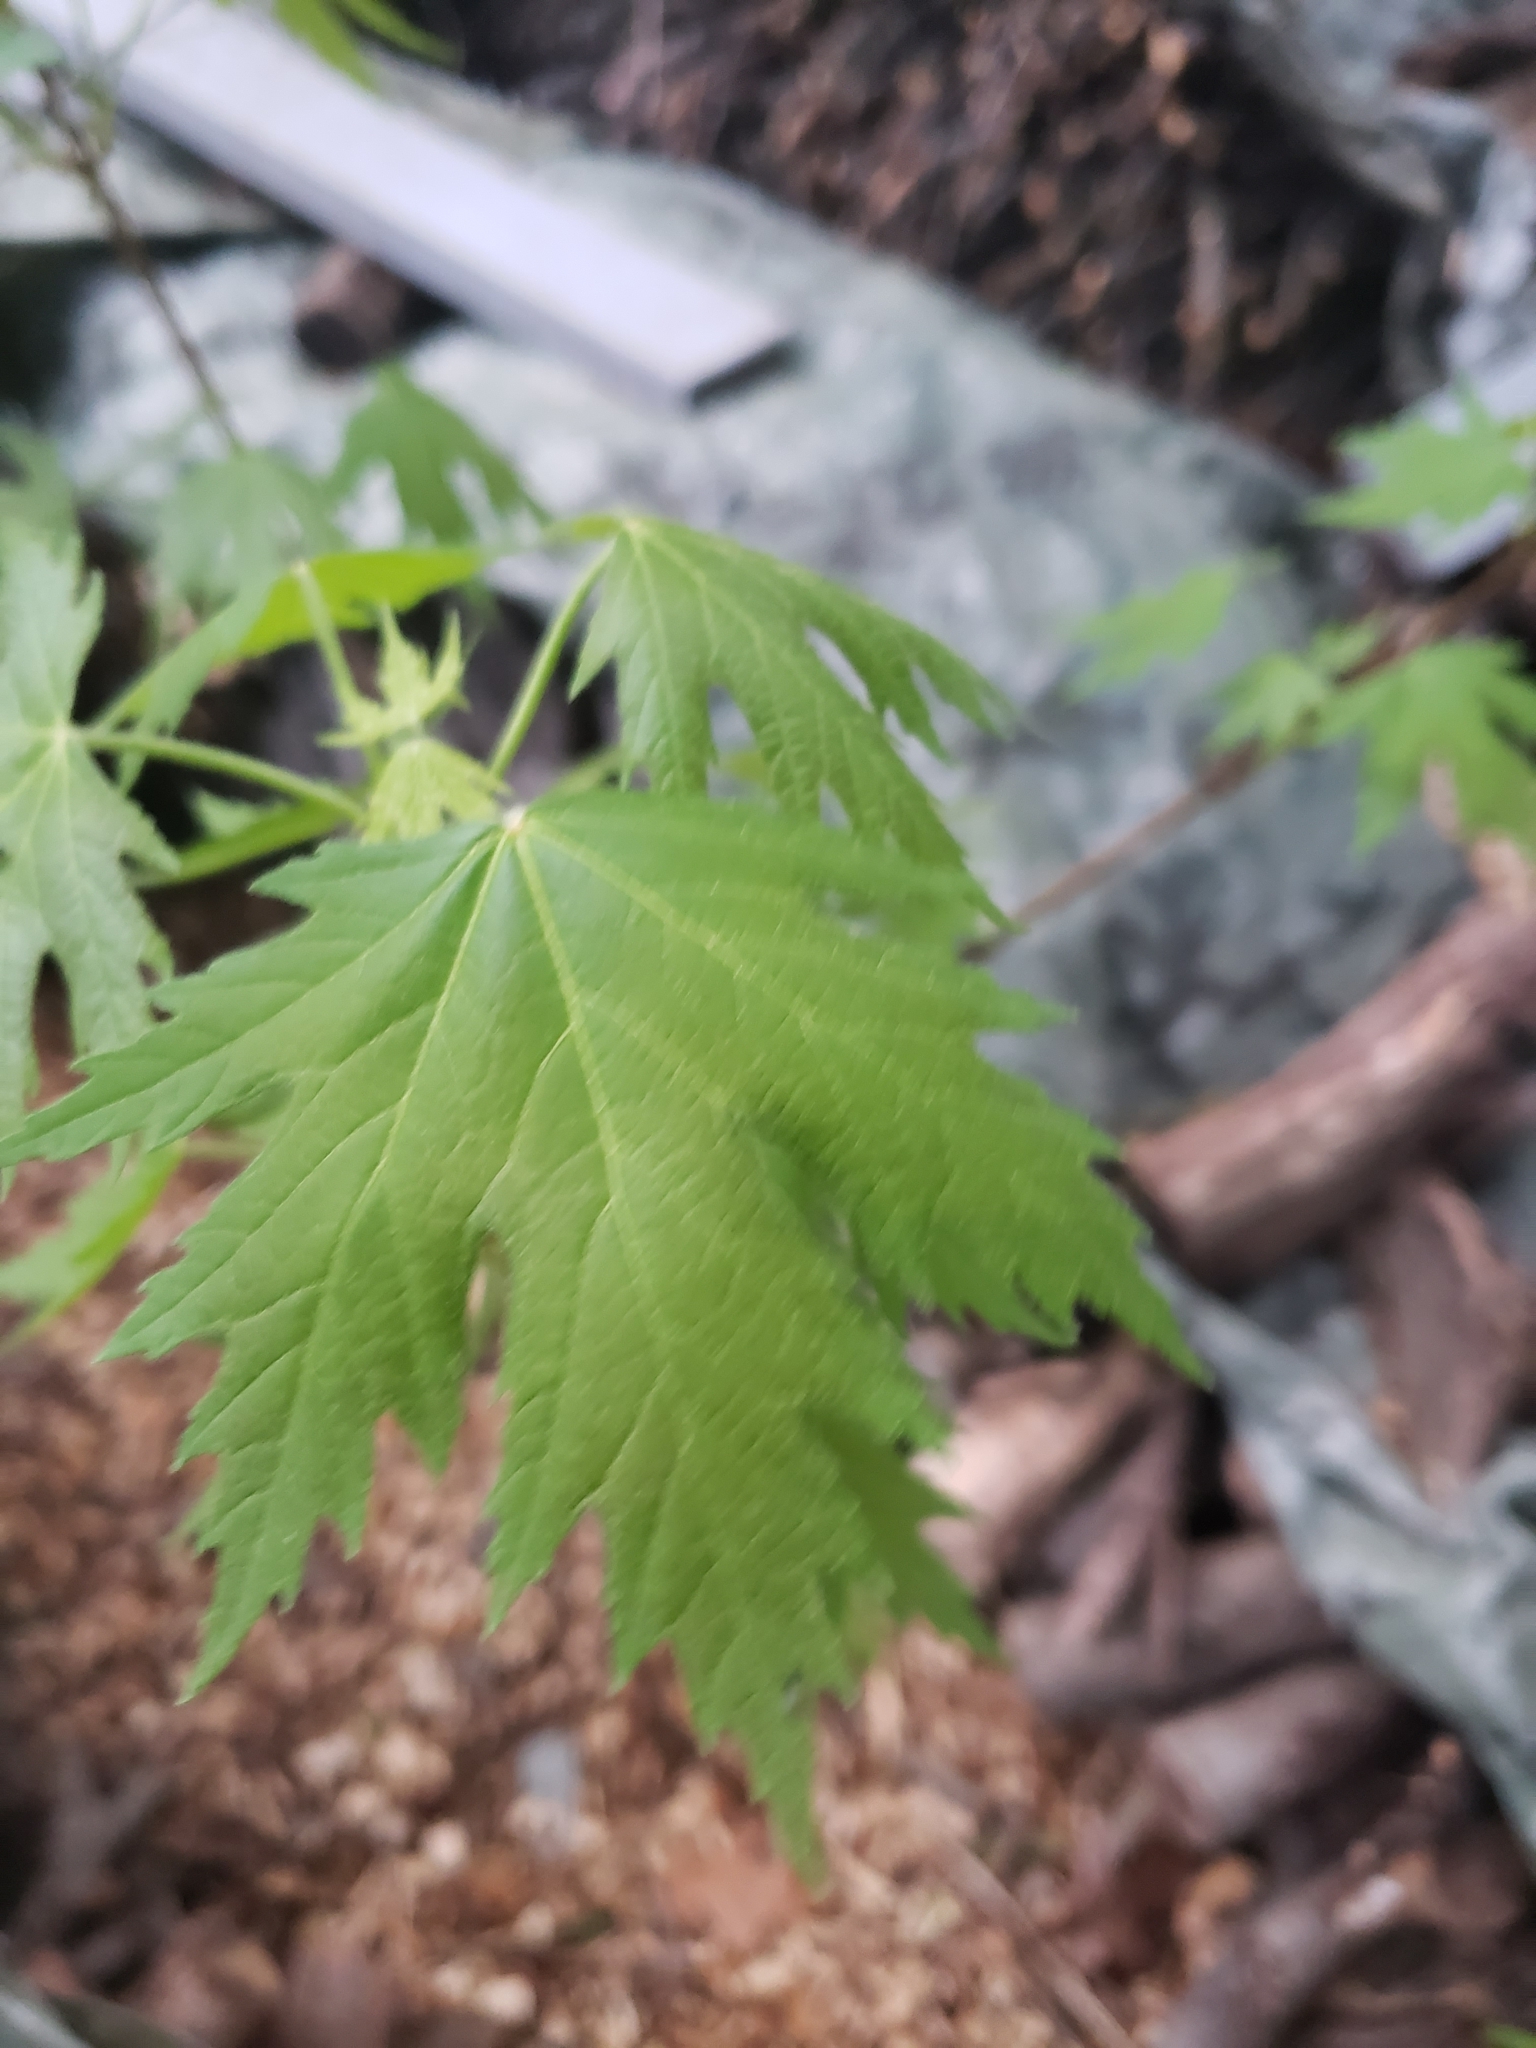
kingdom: Plantae
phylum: Tracheophyta
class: Magnoliopsida
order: Sapindales
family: Sapindaceae
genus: Acer
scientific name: Acer saccharinum
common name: Silver maple
